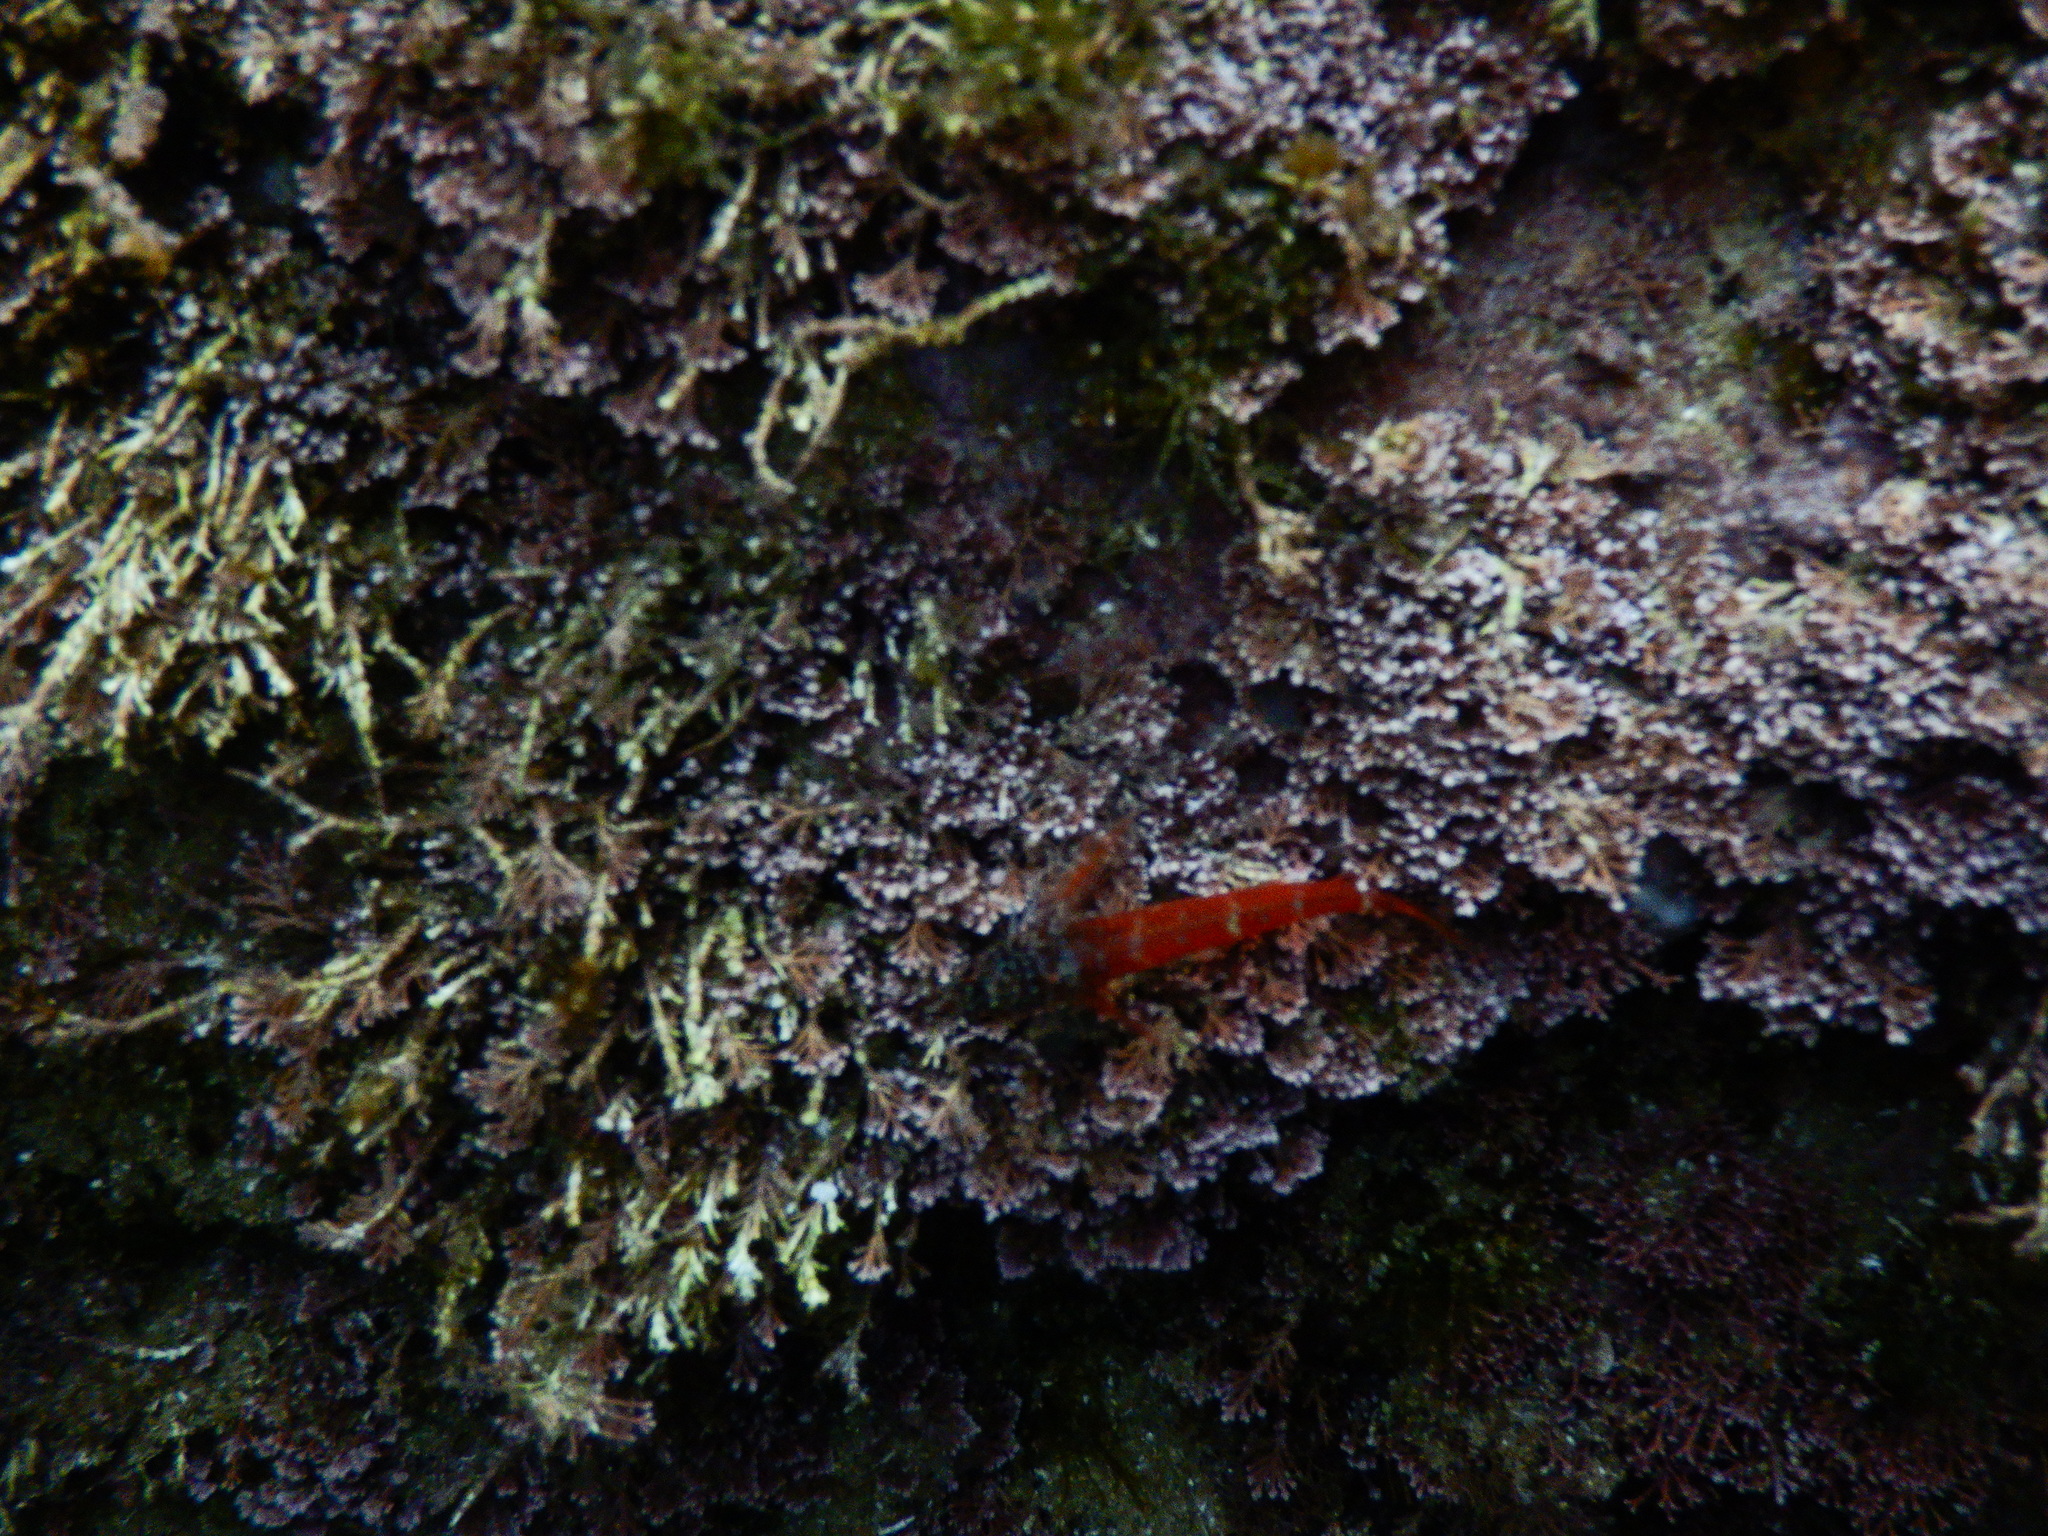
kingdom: Animalia
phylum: Chordata
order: Perciformes
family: Tripterygiidae
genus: Tripterygion
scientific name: Tripterygion melanurum
